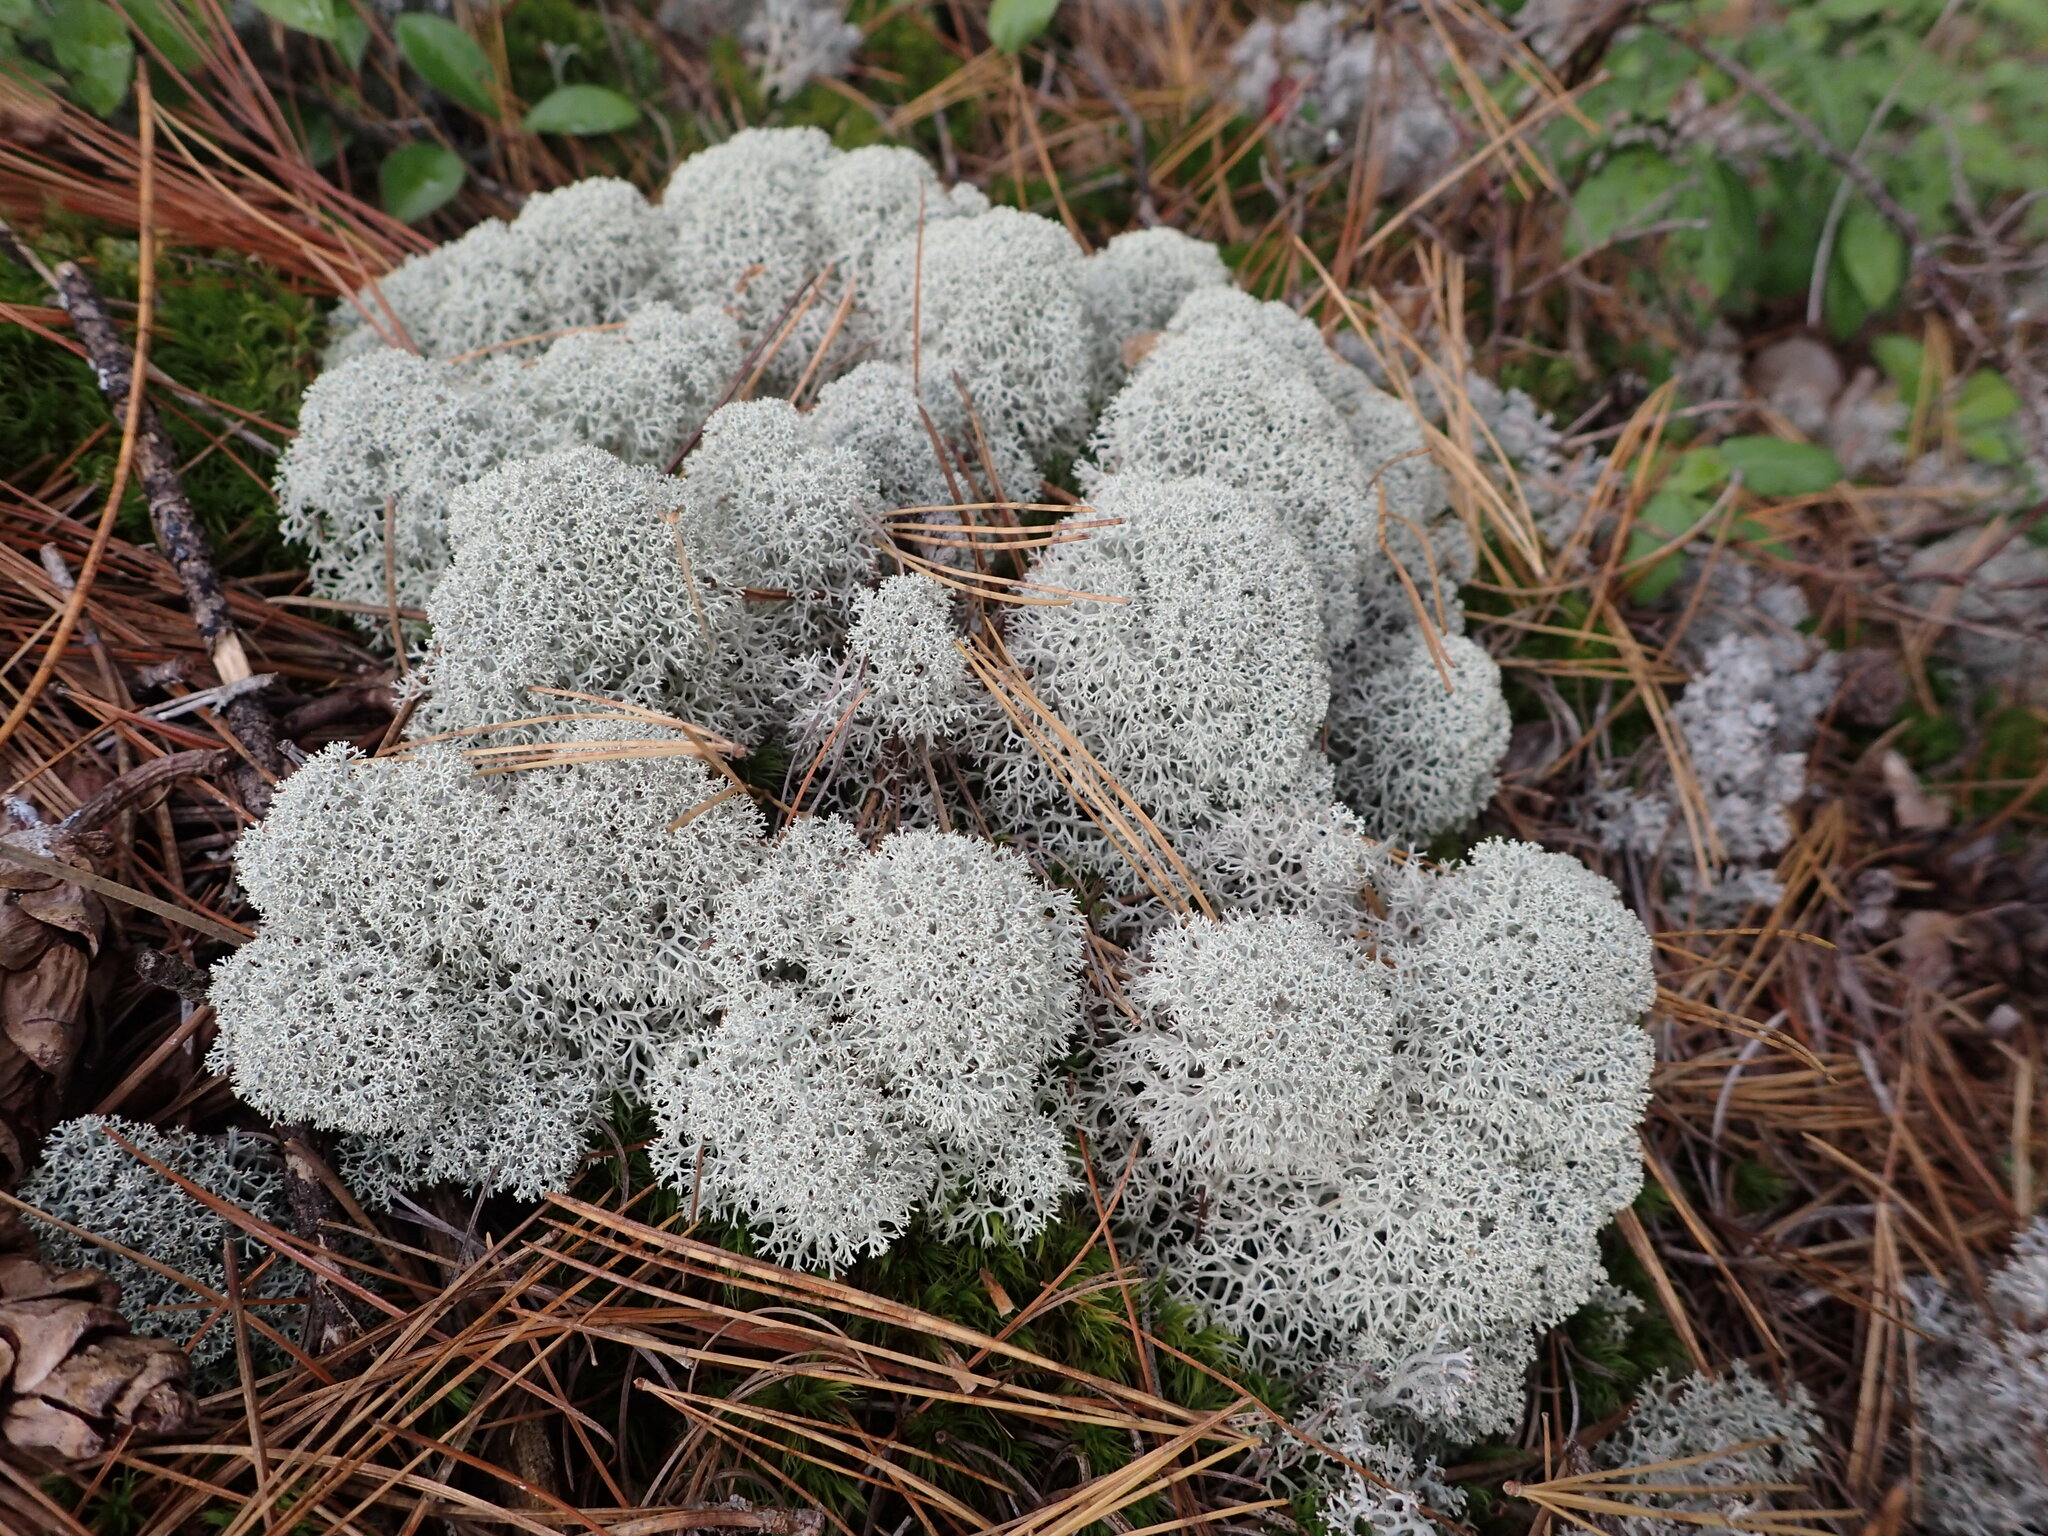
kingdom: Fungi
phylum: Ascomycota
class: Lecanoromycetes
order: Lecanorales
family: Cladoniaceae
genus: Cladonia
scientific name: Cladonia stellaris
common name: Star-tipped reindeer lichen
